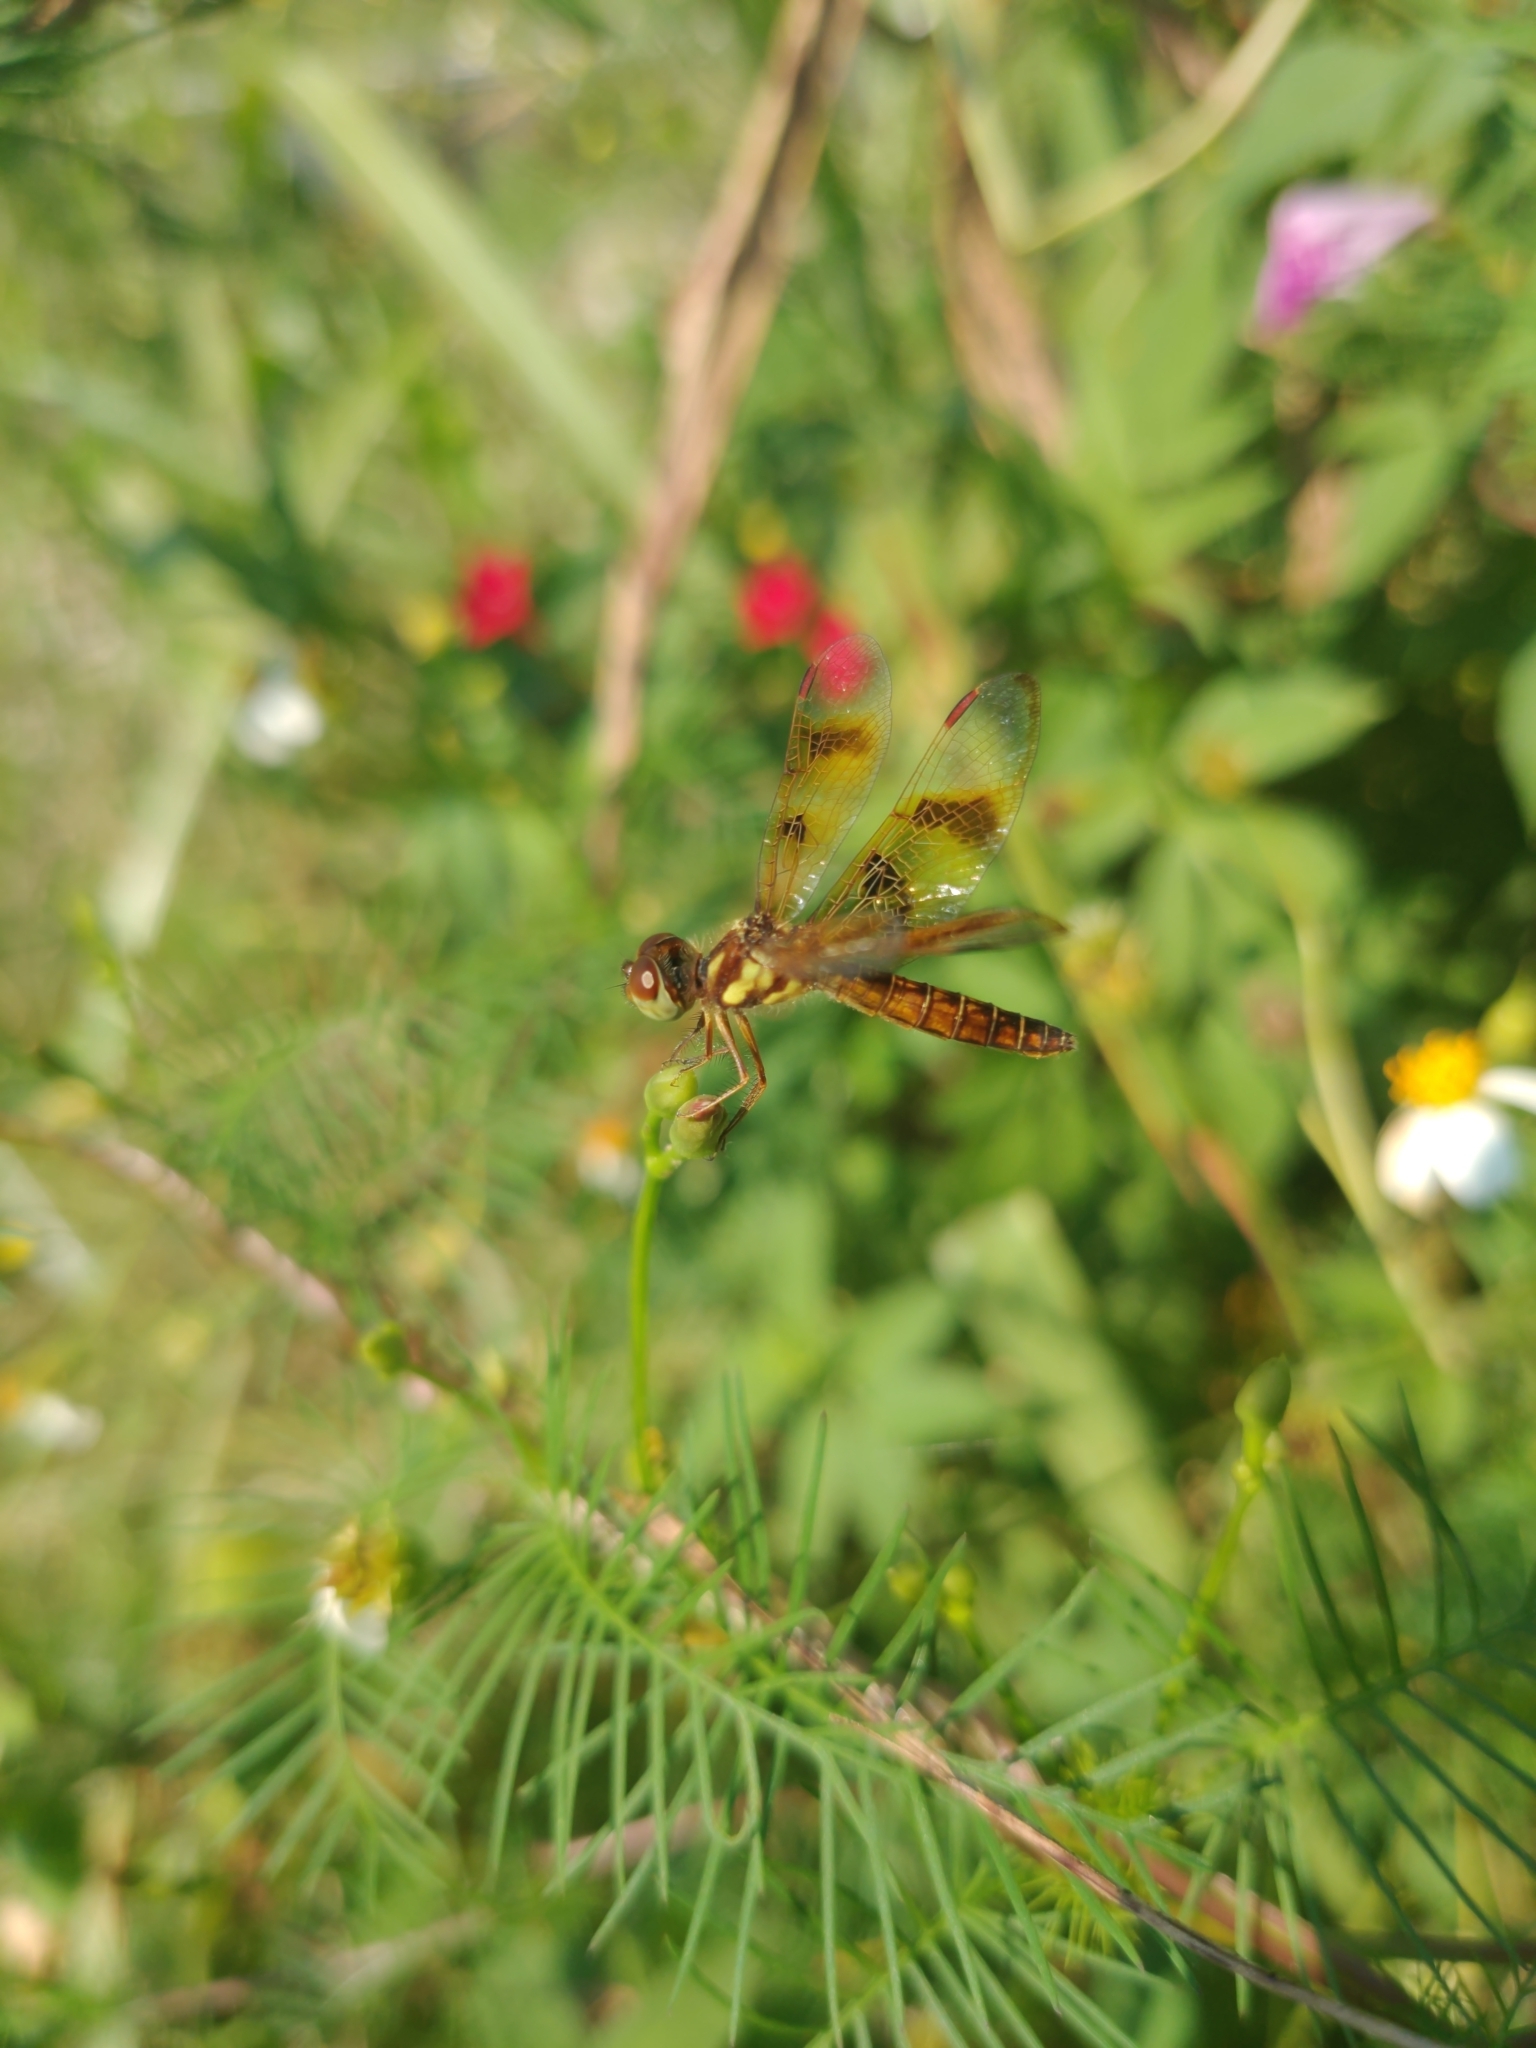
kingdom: Animalia
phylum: Arthropoda
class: Insecta
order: Odonata
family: Libellulidae
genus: Perithemis
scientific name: Perithemis tenera
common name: Eastern amberwing
